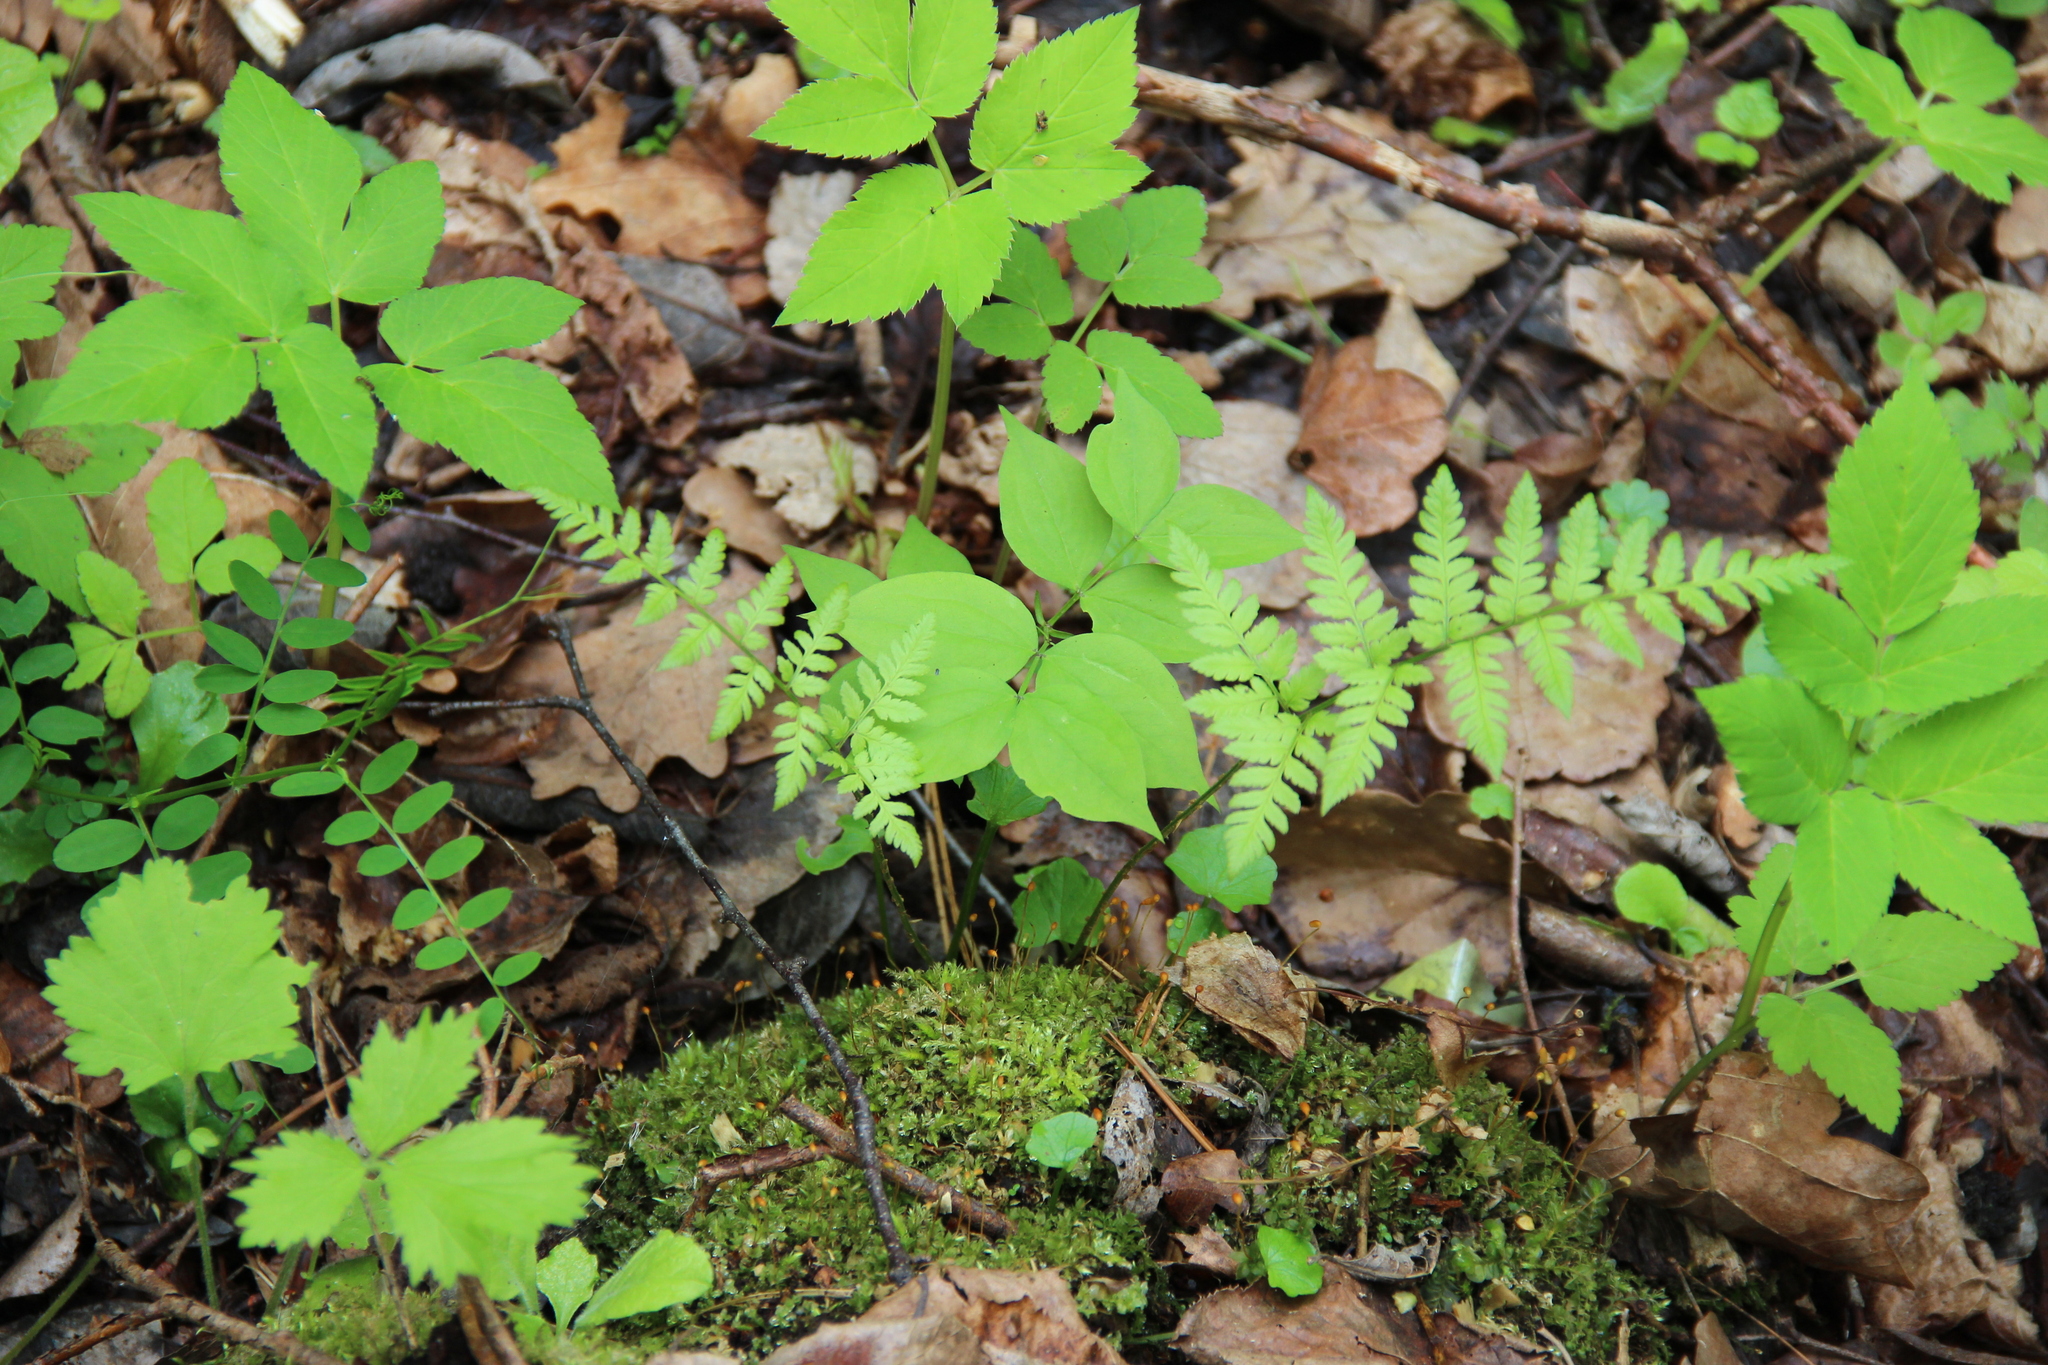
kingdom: Plantae
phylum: Tracheophyta
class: Polypodiopsida
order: Polypodiales
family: Dryopteridaceae
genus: Dryopteris
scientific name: Dryopteris carthusiana
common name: Narrow buckler-fern
